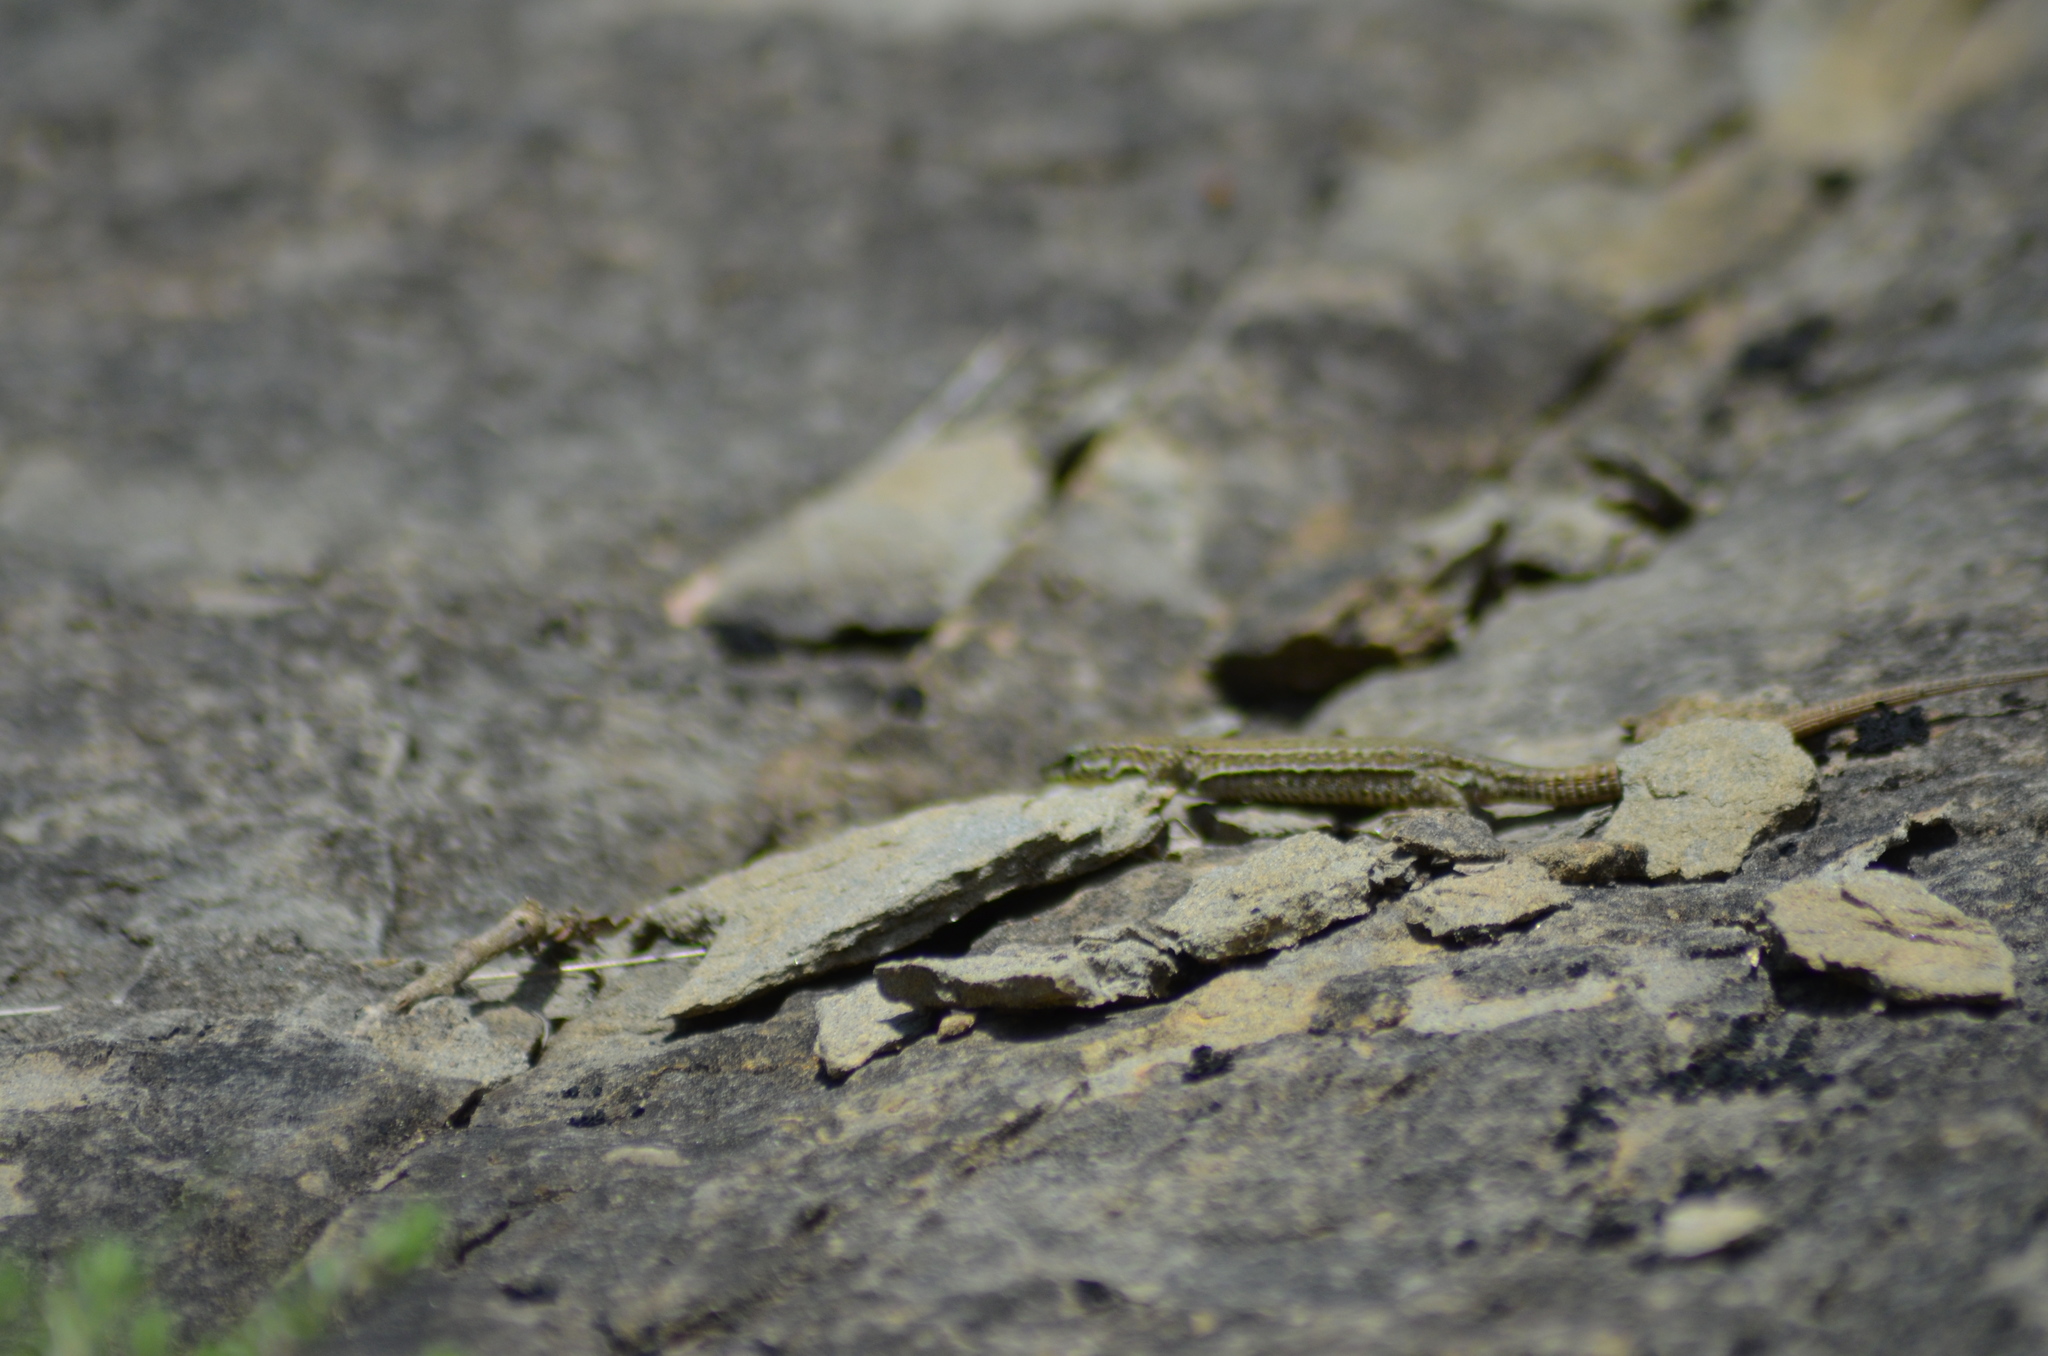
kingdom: Animalia
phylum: Chordata
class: Squamata
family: Lacertidae
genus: Podarcis
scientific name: Podarcis liolepis
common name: Catalonian wall lizard
